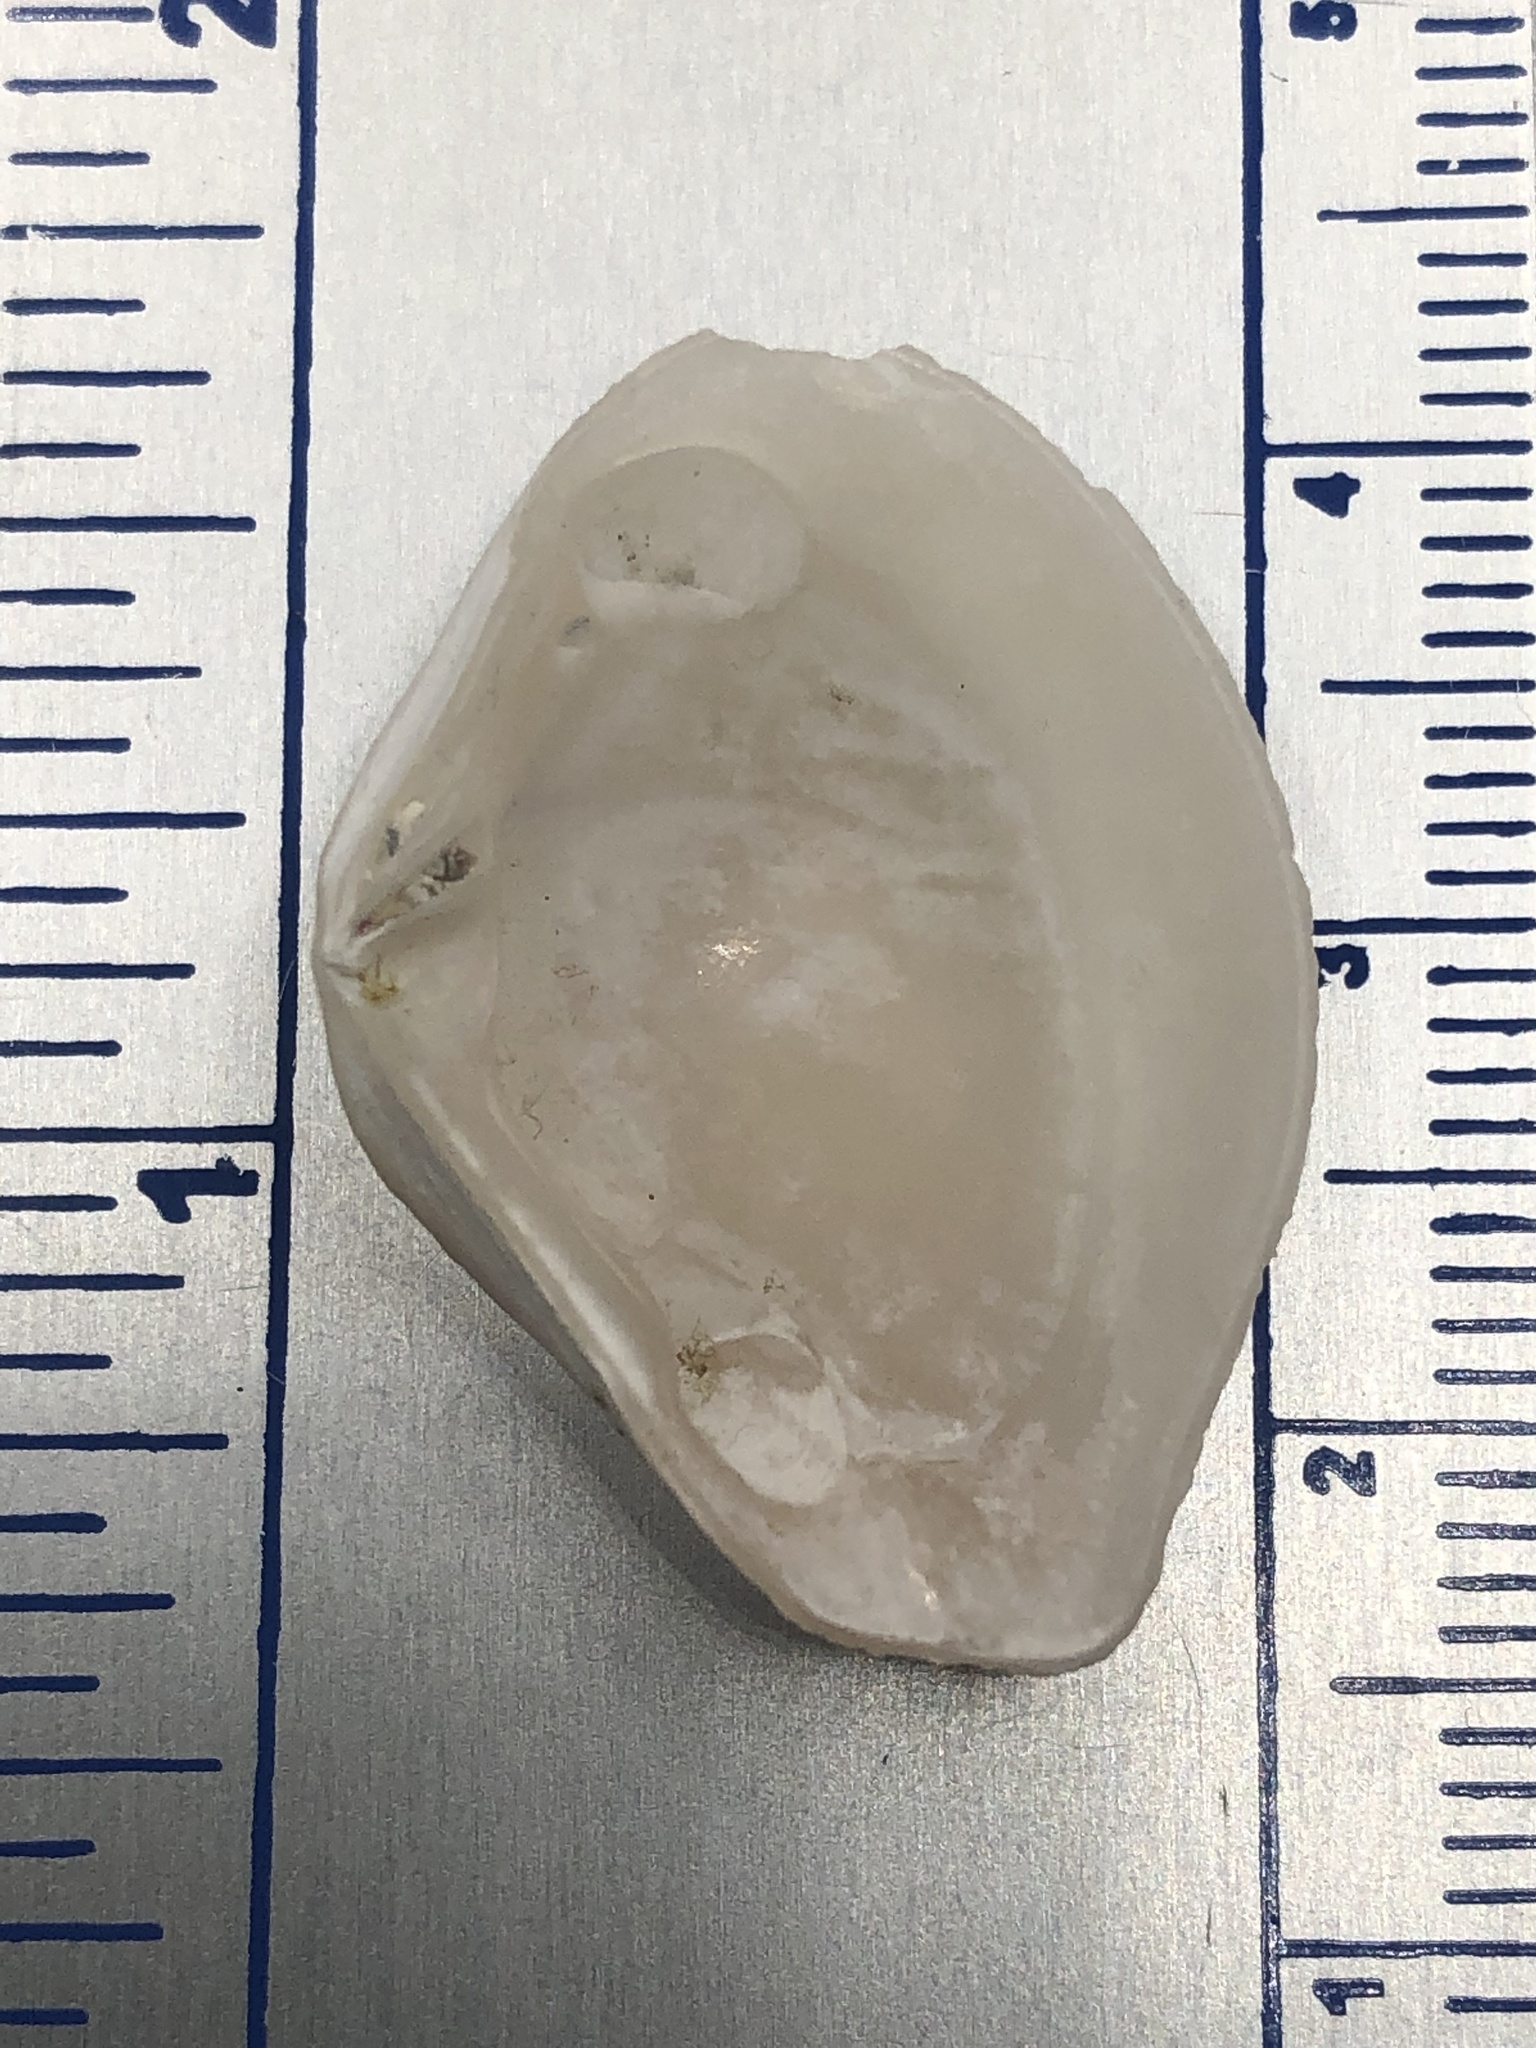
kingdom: Animalia
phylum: Mollusca
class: Bivalvia
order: Carditida
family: Crassatellidae
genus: Kalolophus
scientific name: Kalolophus speciosus
